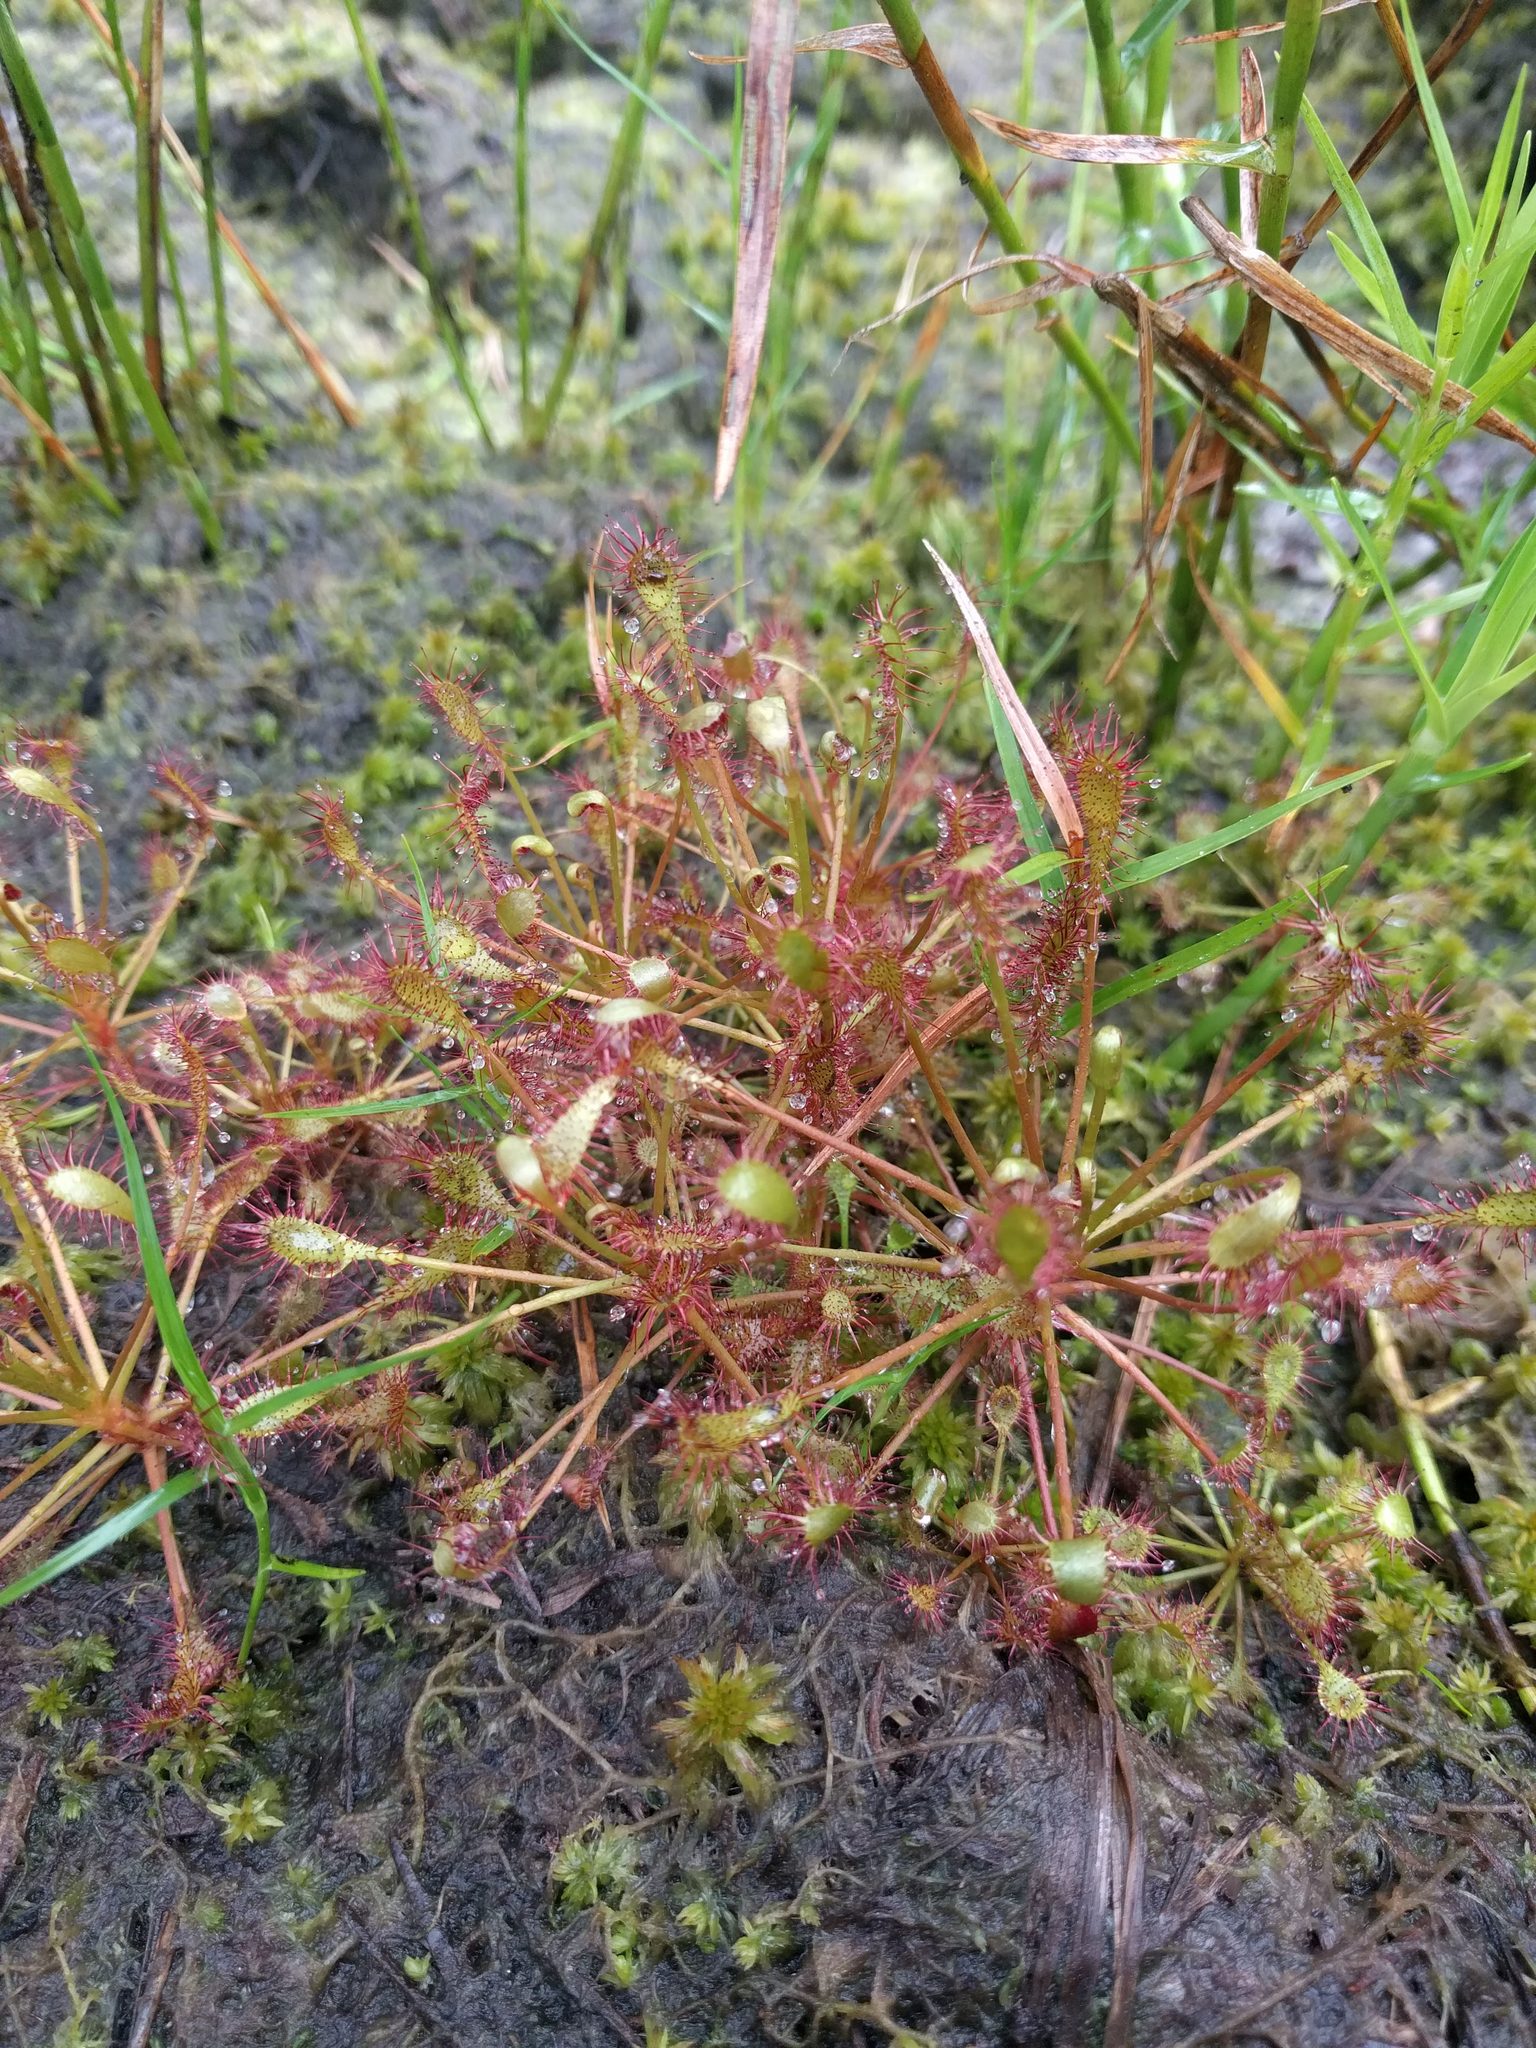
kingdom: Plantae
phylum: Tracheophyta
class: Magnoliopsida
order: Caryophyllales
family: Droseraceae
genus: Drosera
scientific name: Drosera intermedia
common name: Oblong-leaved sundew
